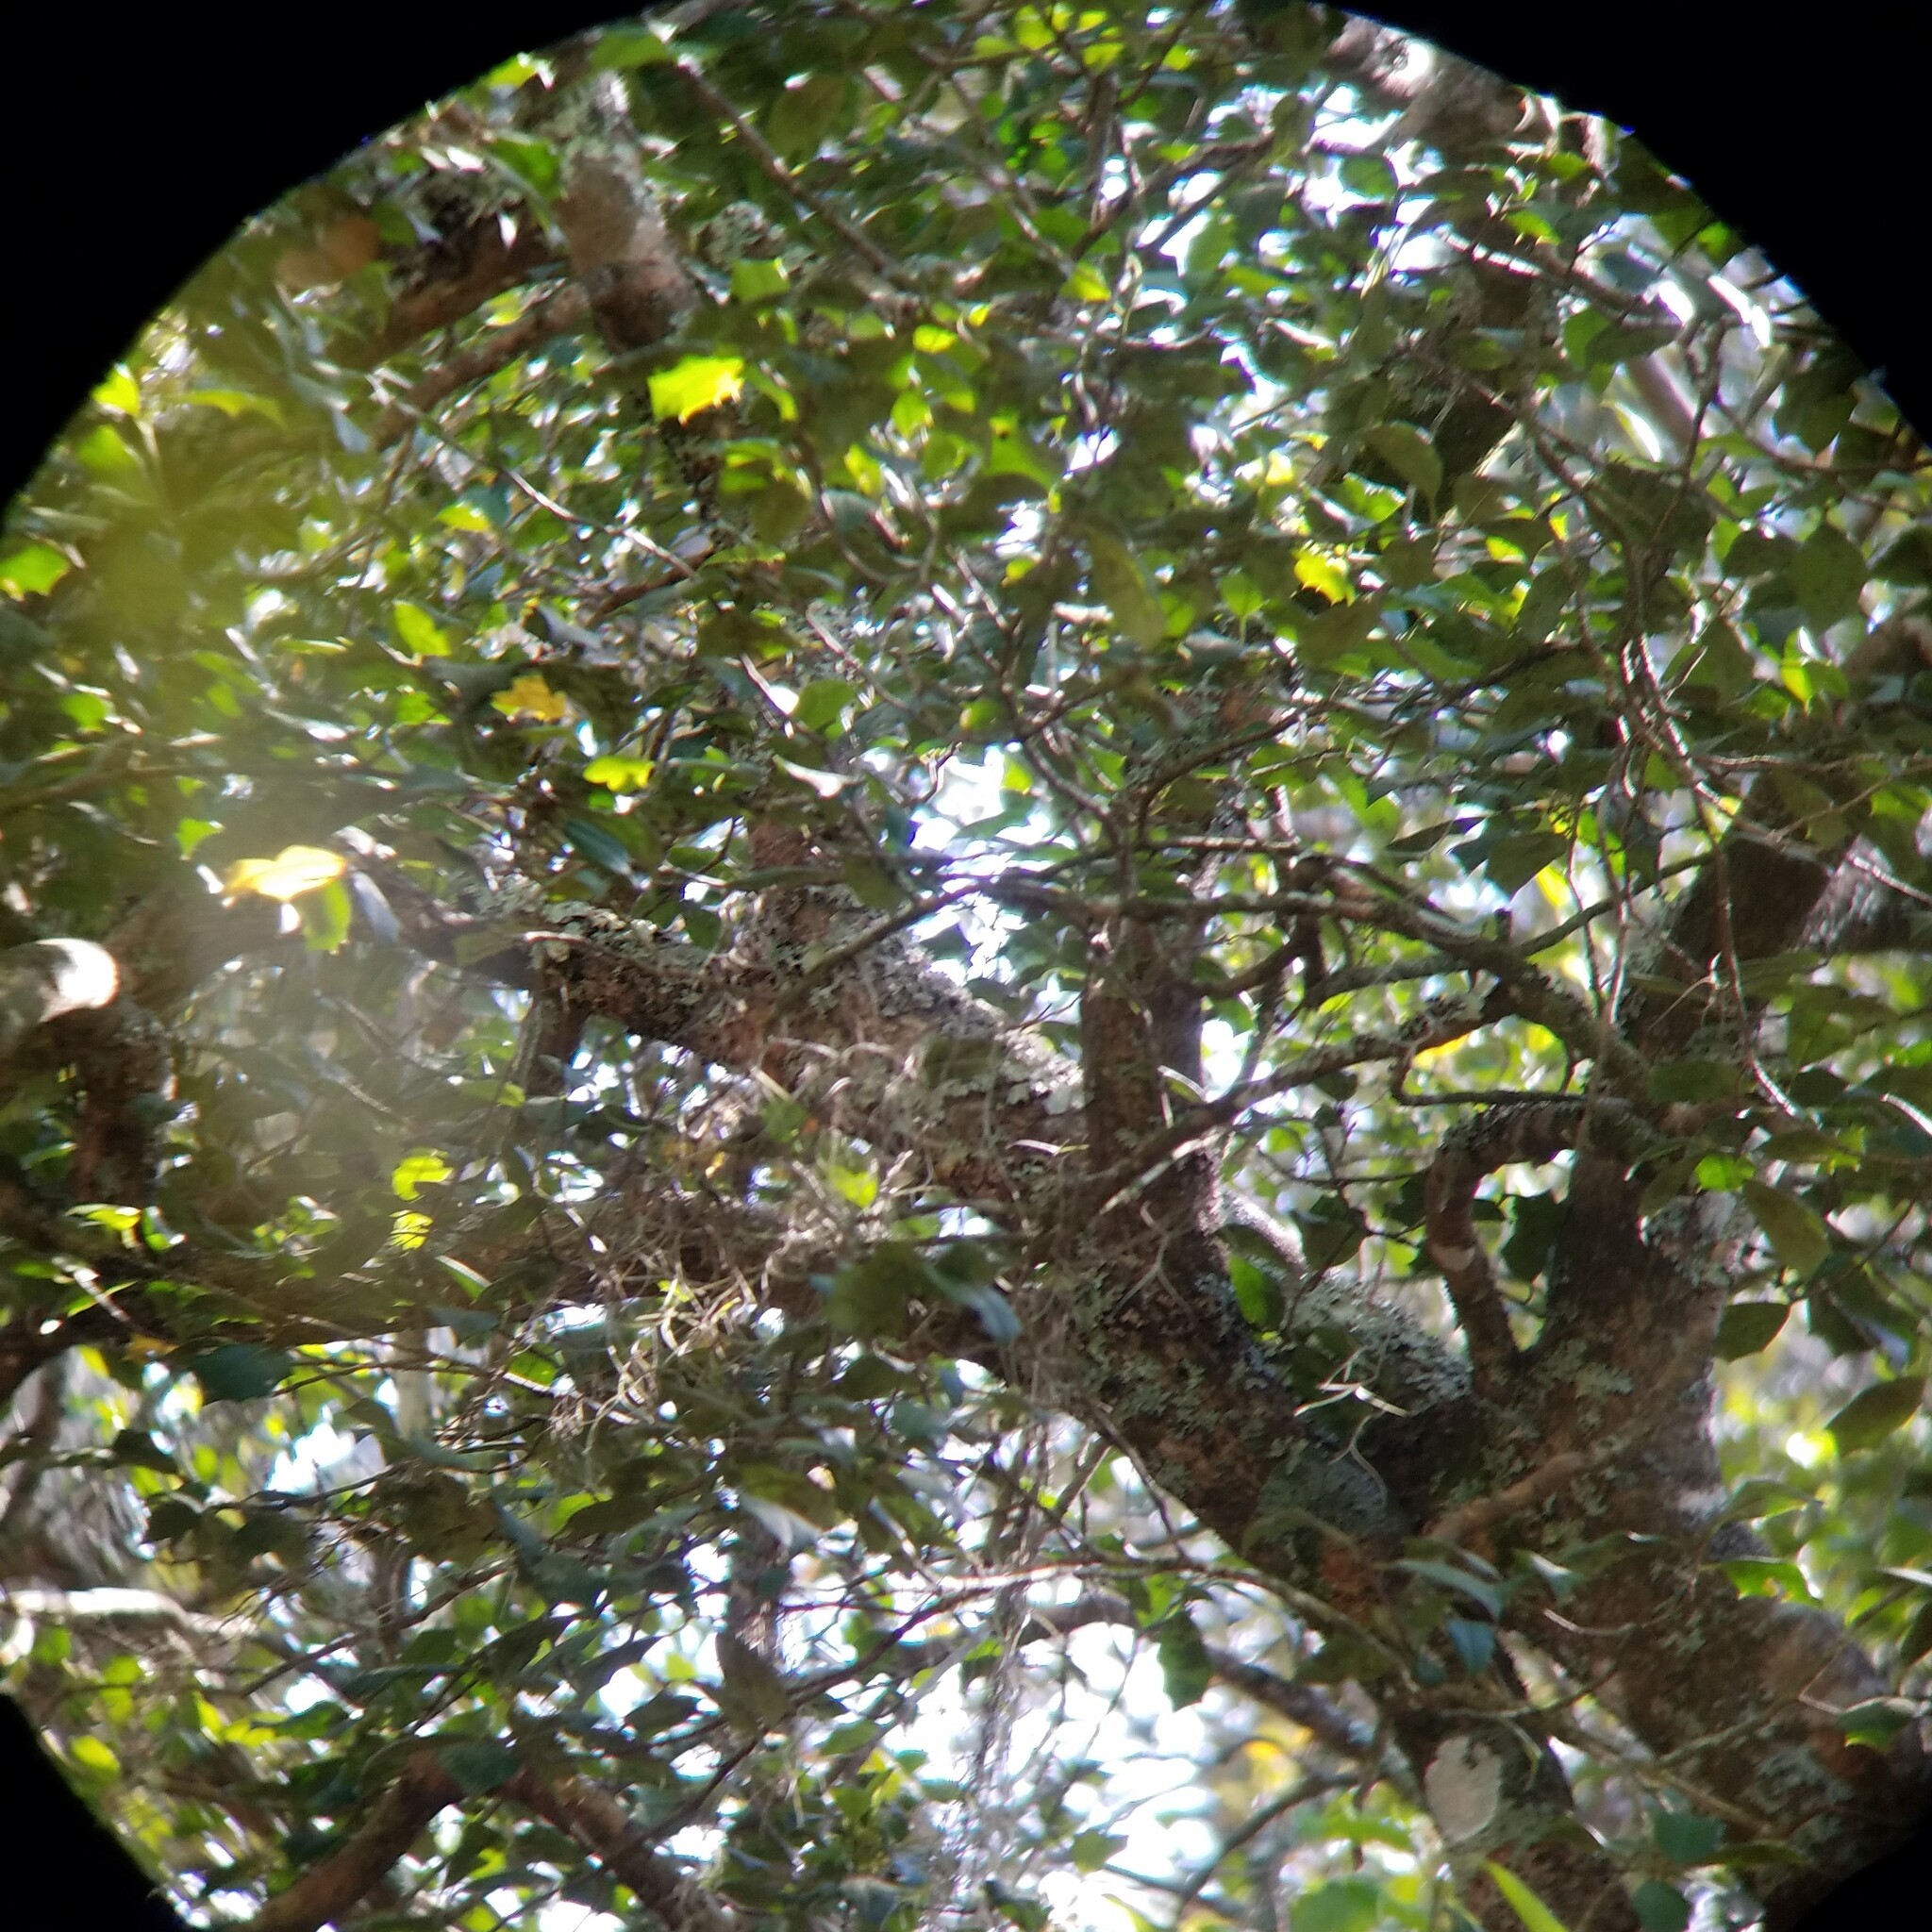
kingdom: Plantae
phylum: Tracheophyta
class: Magnoliopsida
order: Aquifoliales
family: Aquifoliaceae
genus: Ilex
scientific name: Ilex opaca
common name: American holly
